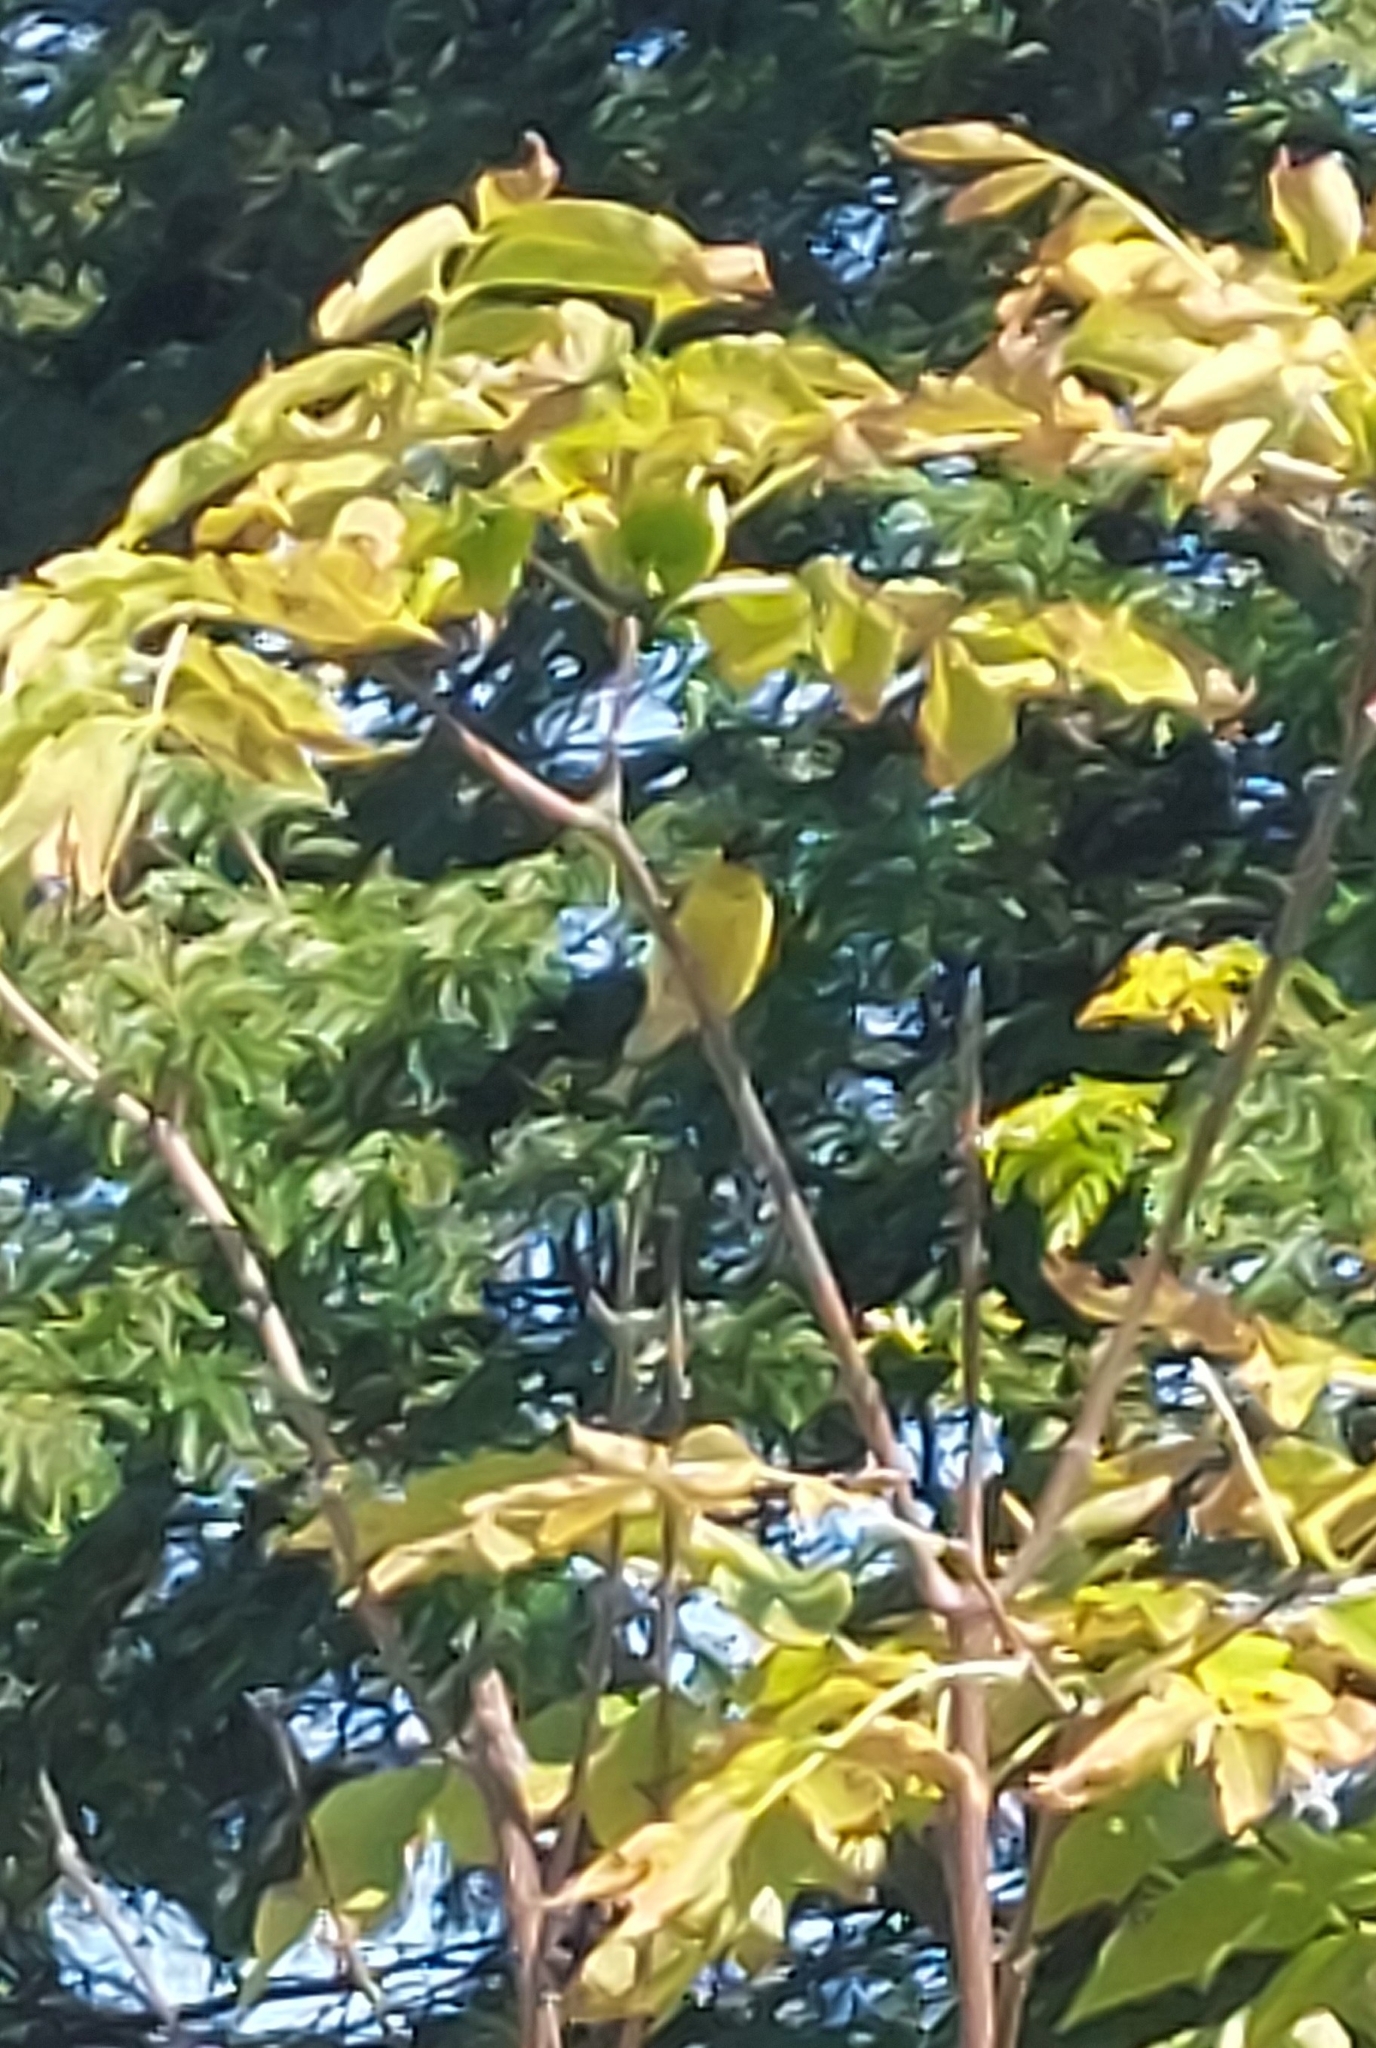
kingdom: Animalia
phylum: Chordata
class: Aves
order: Passeriformes
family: Fringillidae
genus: Spinus
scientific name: Spinus tristis
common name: American goldfinch
